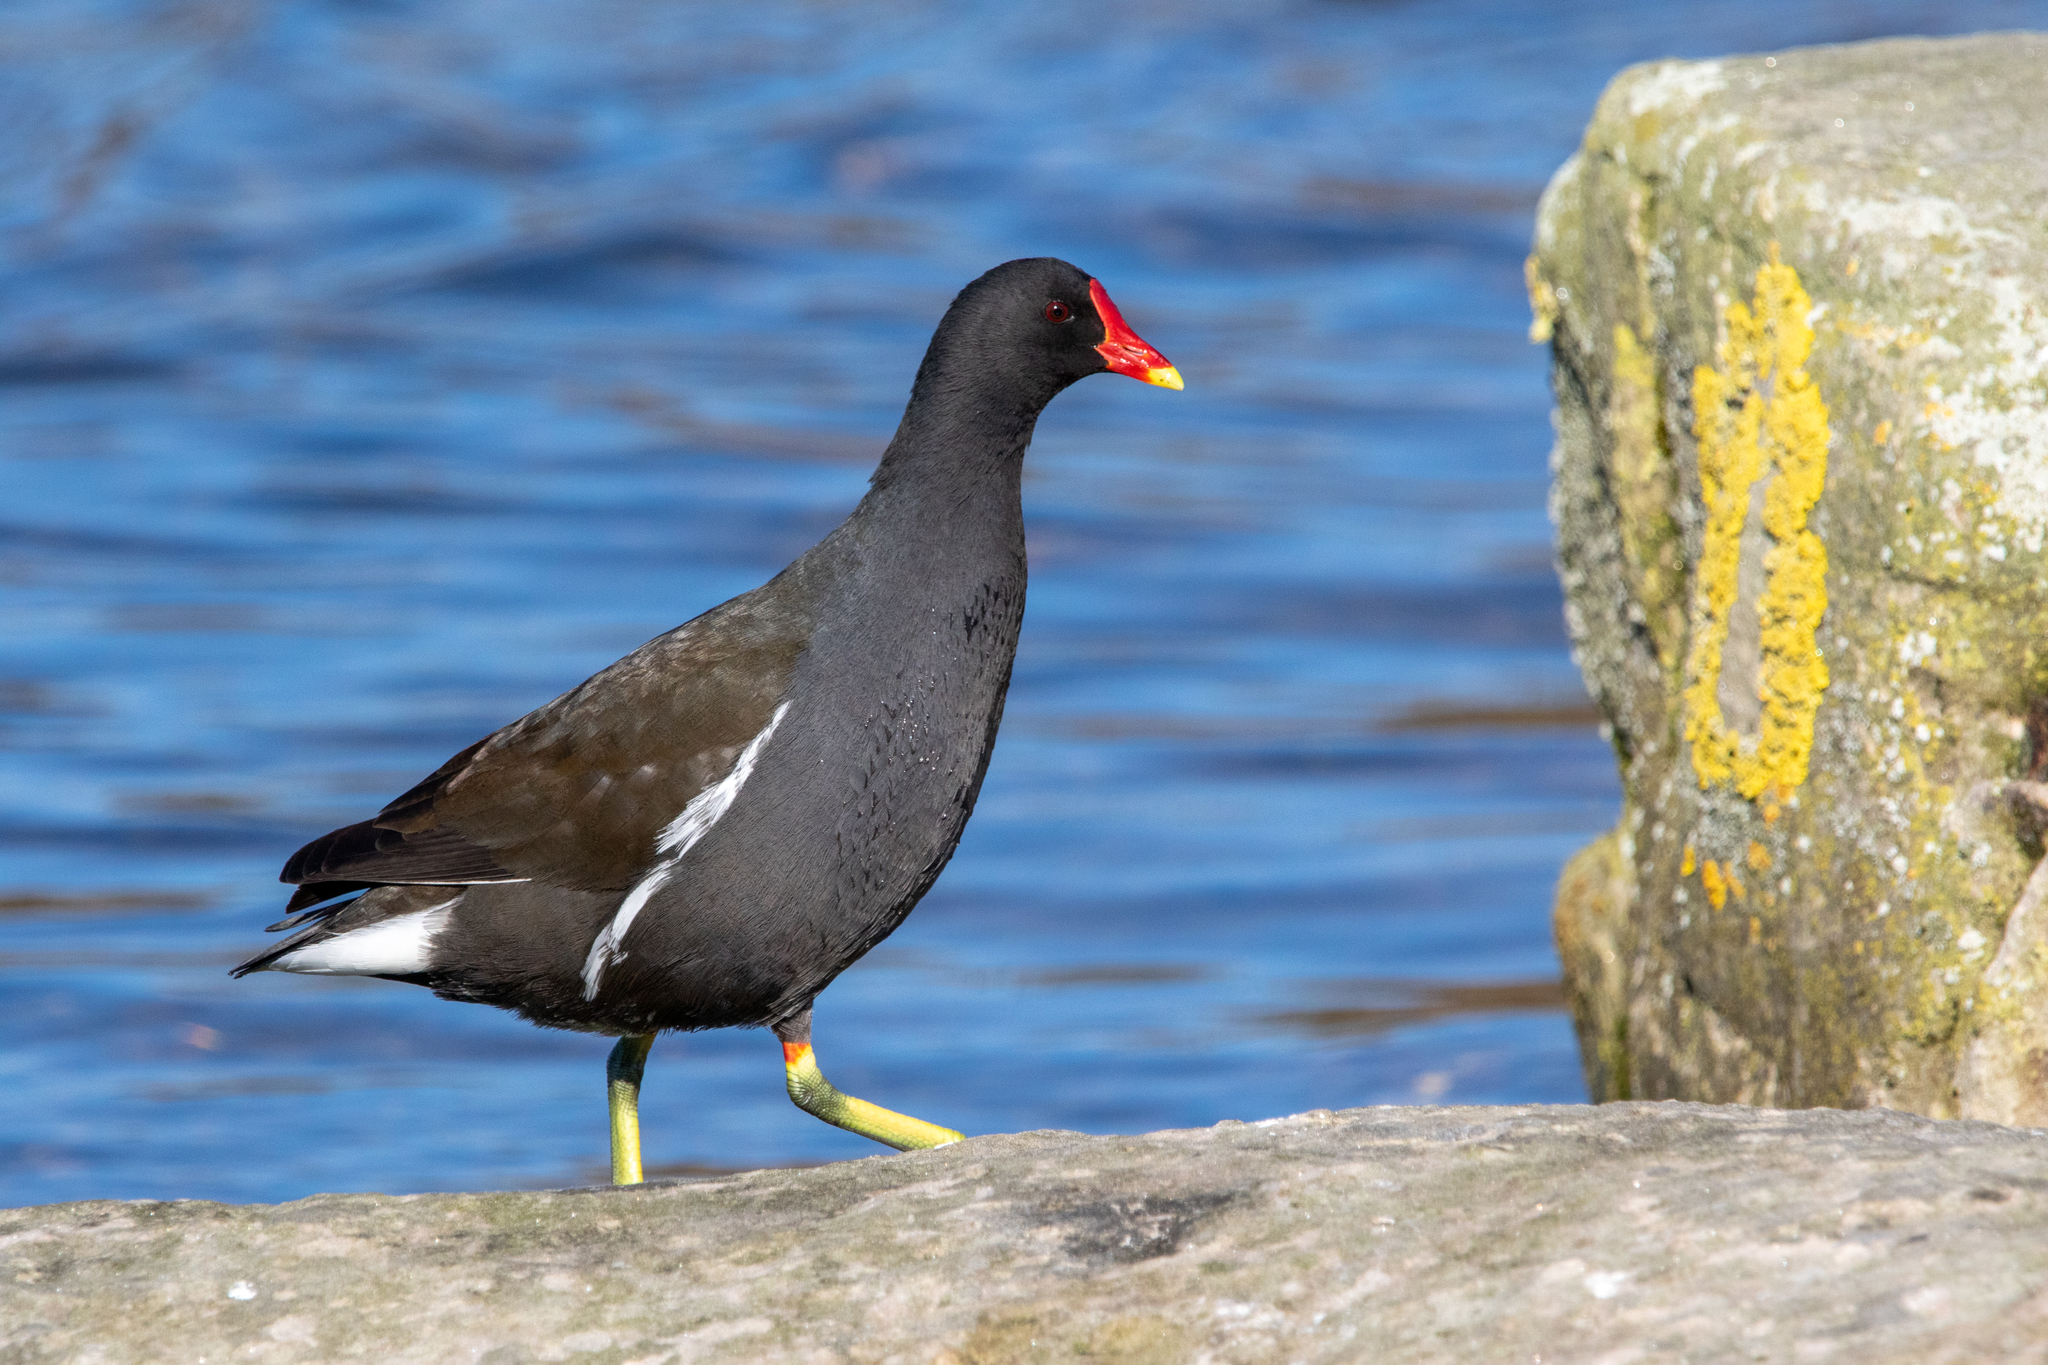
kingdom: Animalia
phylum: Chordata
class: Aves
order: Gruiformes
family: Rallidae
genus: Gallinula
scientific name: Gallinula chloropus
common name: Common moorhen
